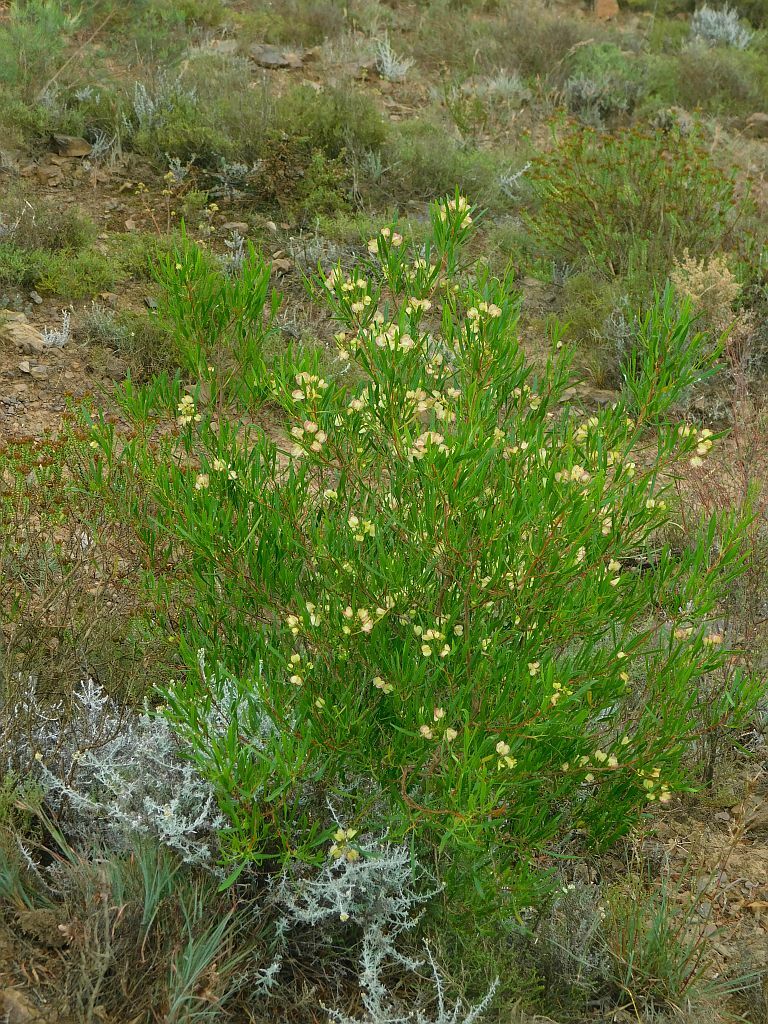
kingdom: Plantae
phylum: Tracheophyta
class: Magnoliopsida
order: Sapindales
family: Sapindaceae
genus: Dodonaea
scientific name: Dodonaea viscosa
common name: Hopbush
